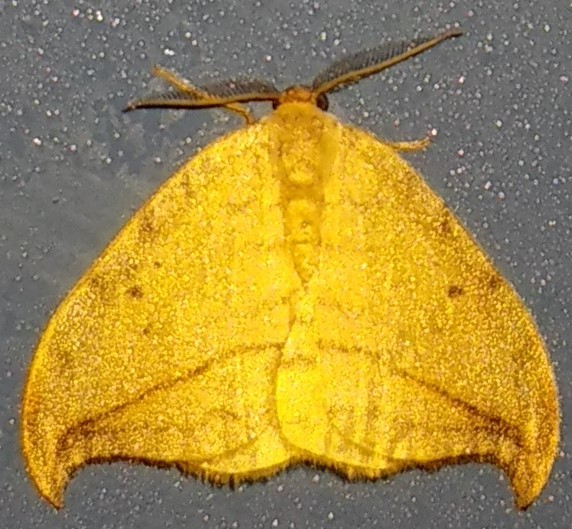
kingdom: Animalia
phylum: Arthropoda
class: Insecta
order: Lepidoptera
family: Drepanidae
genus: Drepana
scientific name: Drepana arcuata
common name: Arched hooktip moth
